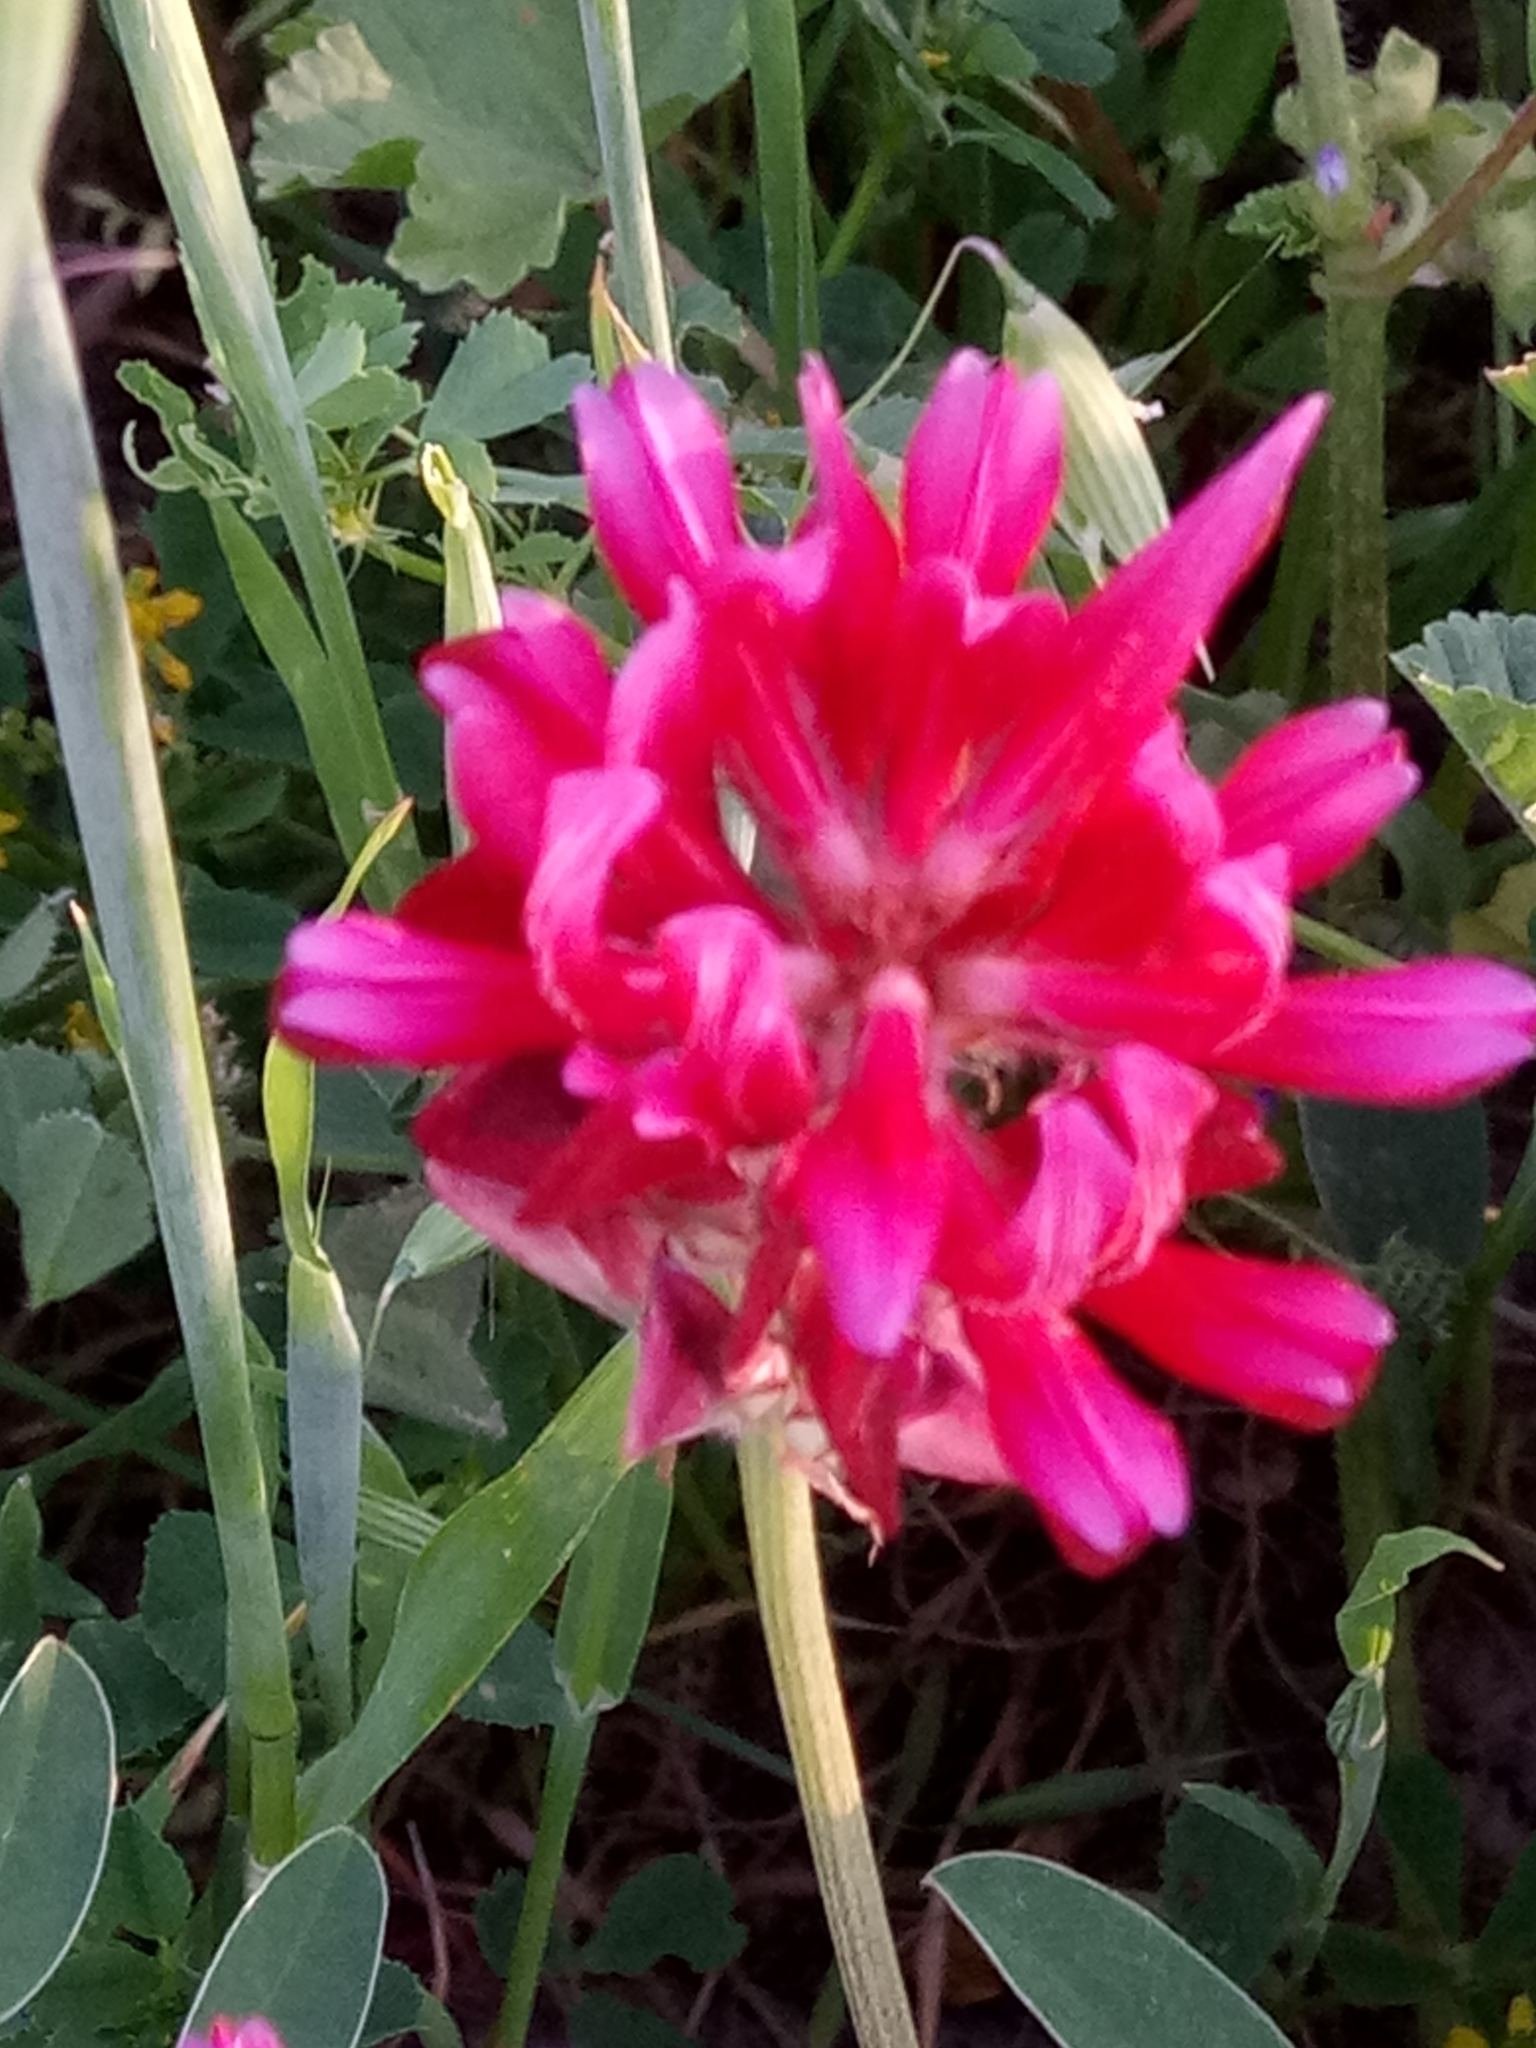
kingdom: Plantae
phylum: Tracheophyta
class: Magnoliopsida
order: Fabales
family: Fabaceae
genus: Sulla
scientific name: Sulla coronaria
